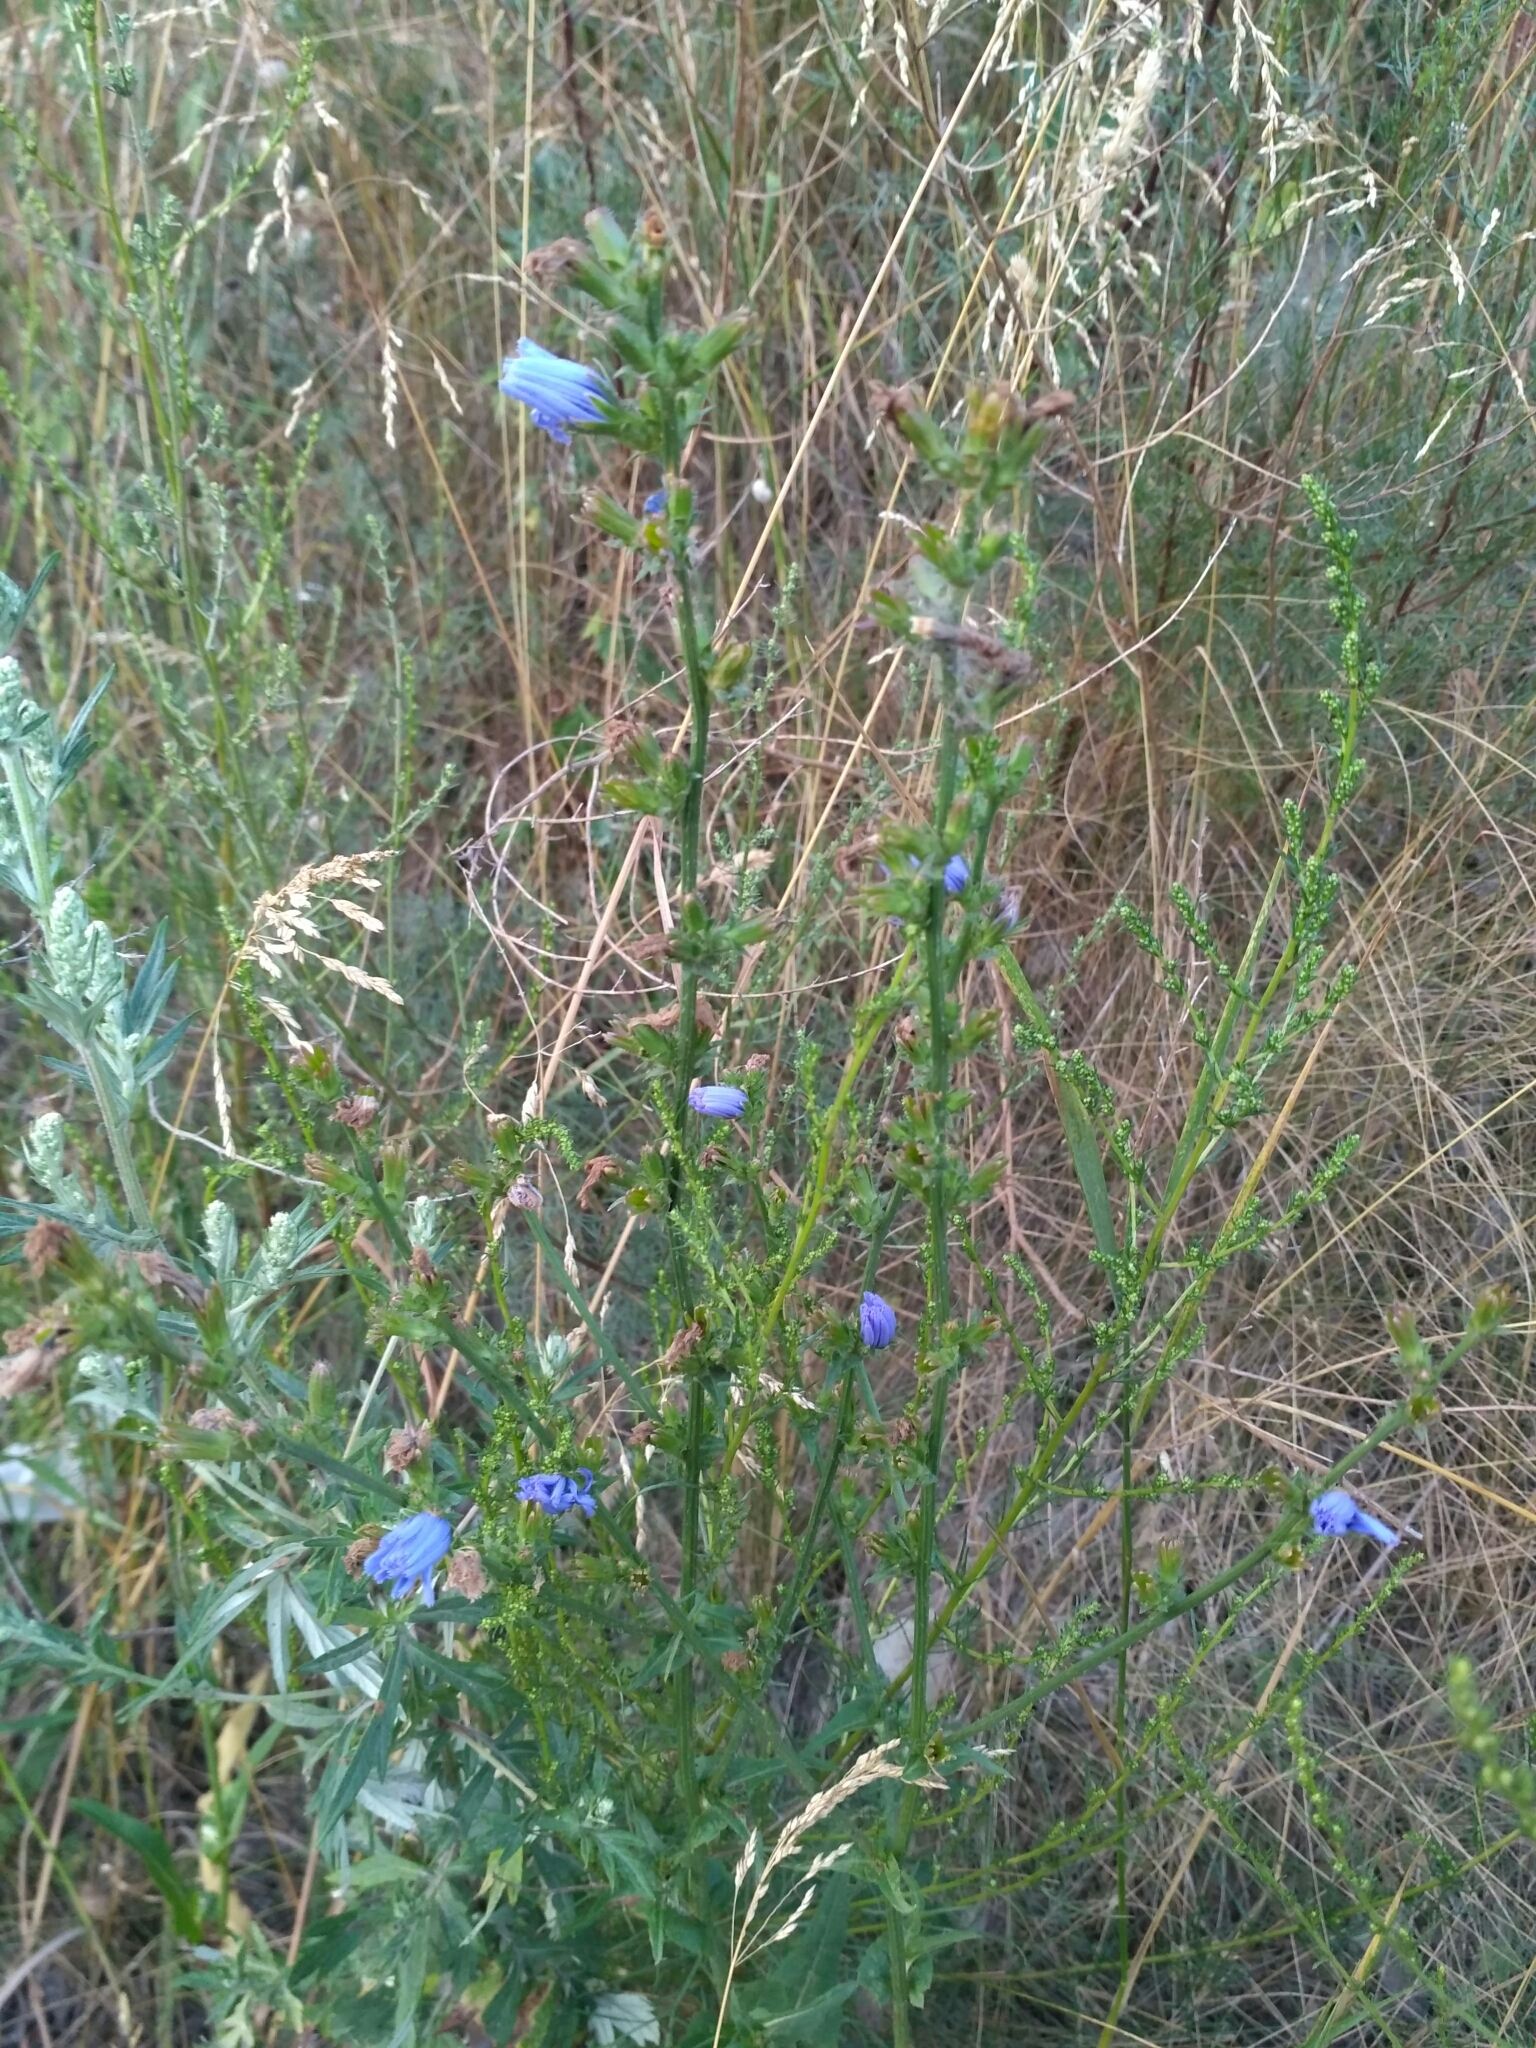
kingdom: Plantae
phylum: Tracheophyta
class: Magnoliopsida
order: Asterales
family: Asteraceae
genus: Cichorium
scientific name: Cichorium intybus
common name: Chicory
